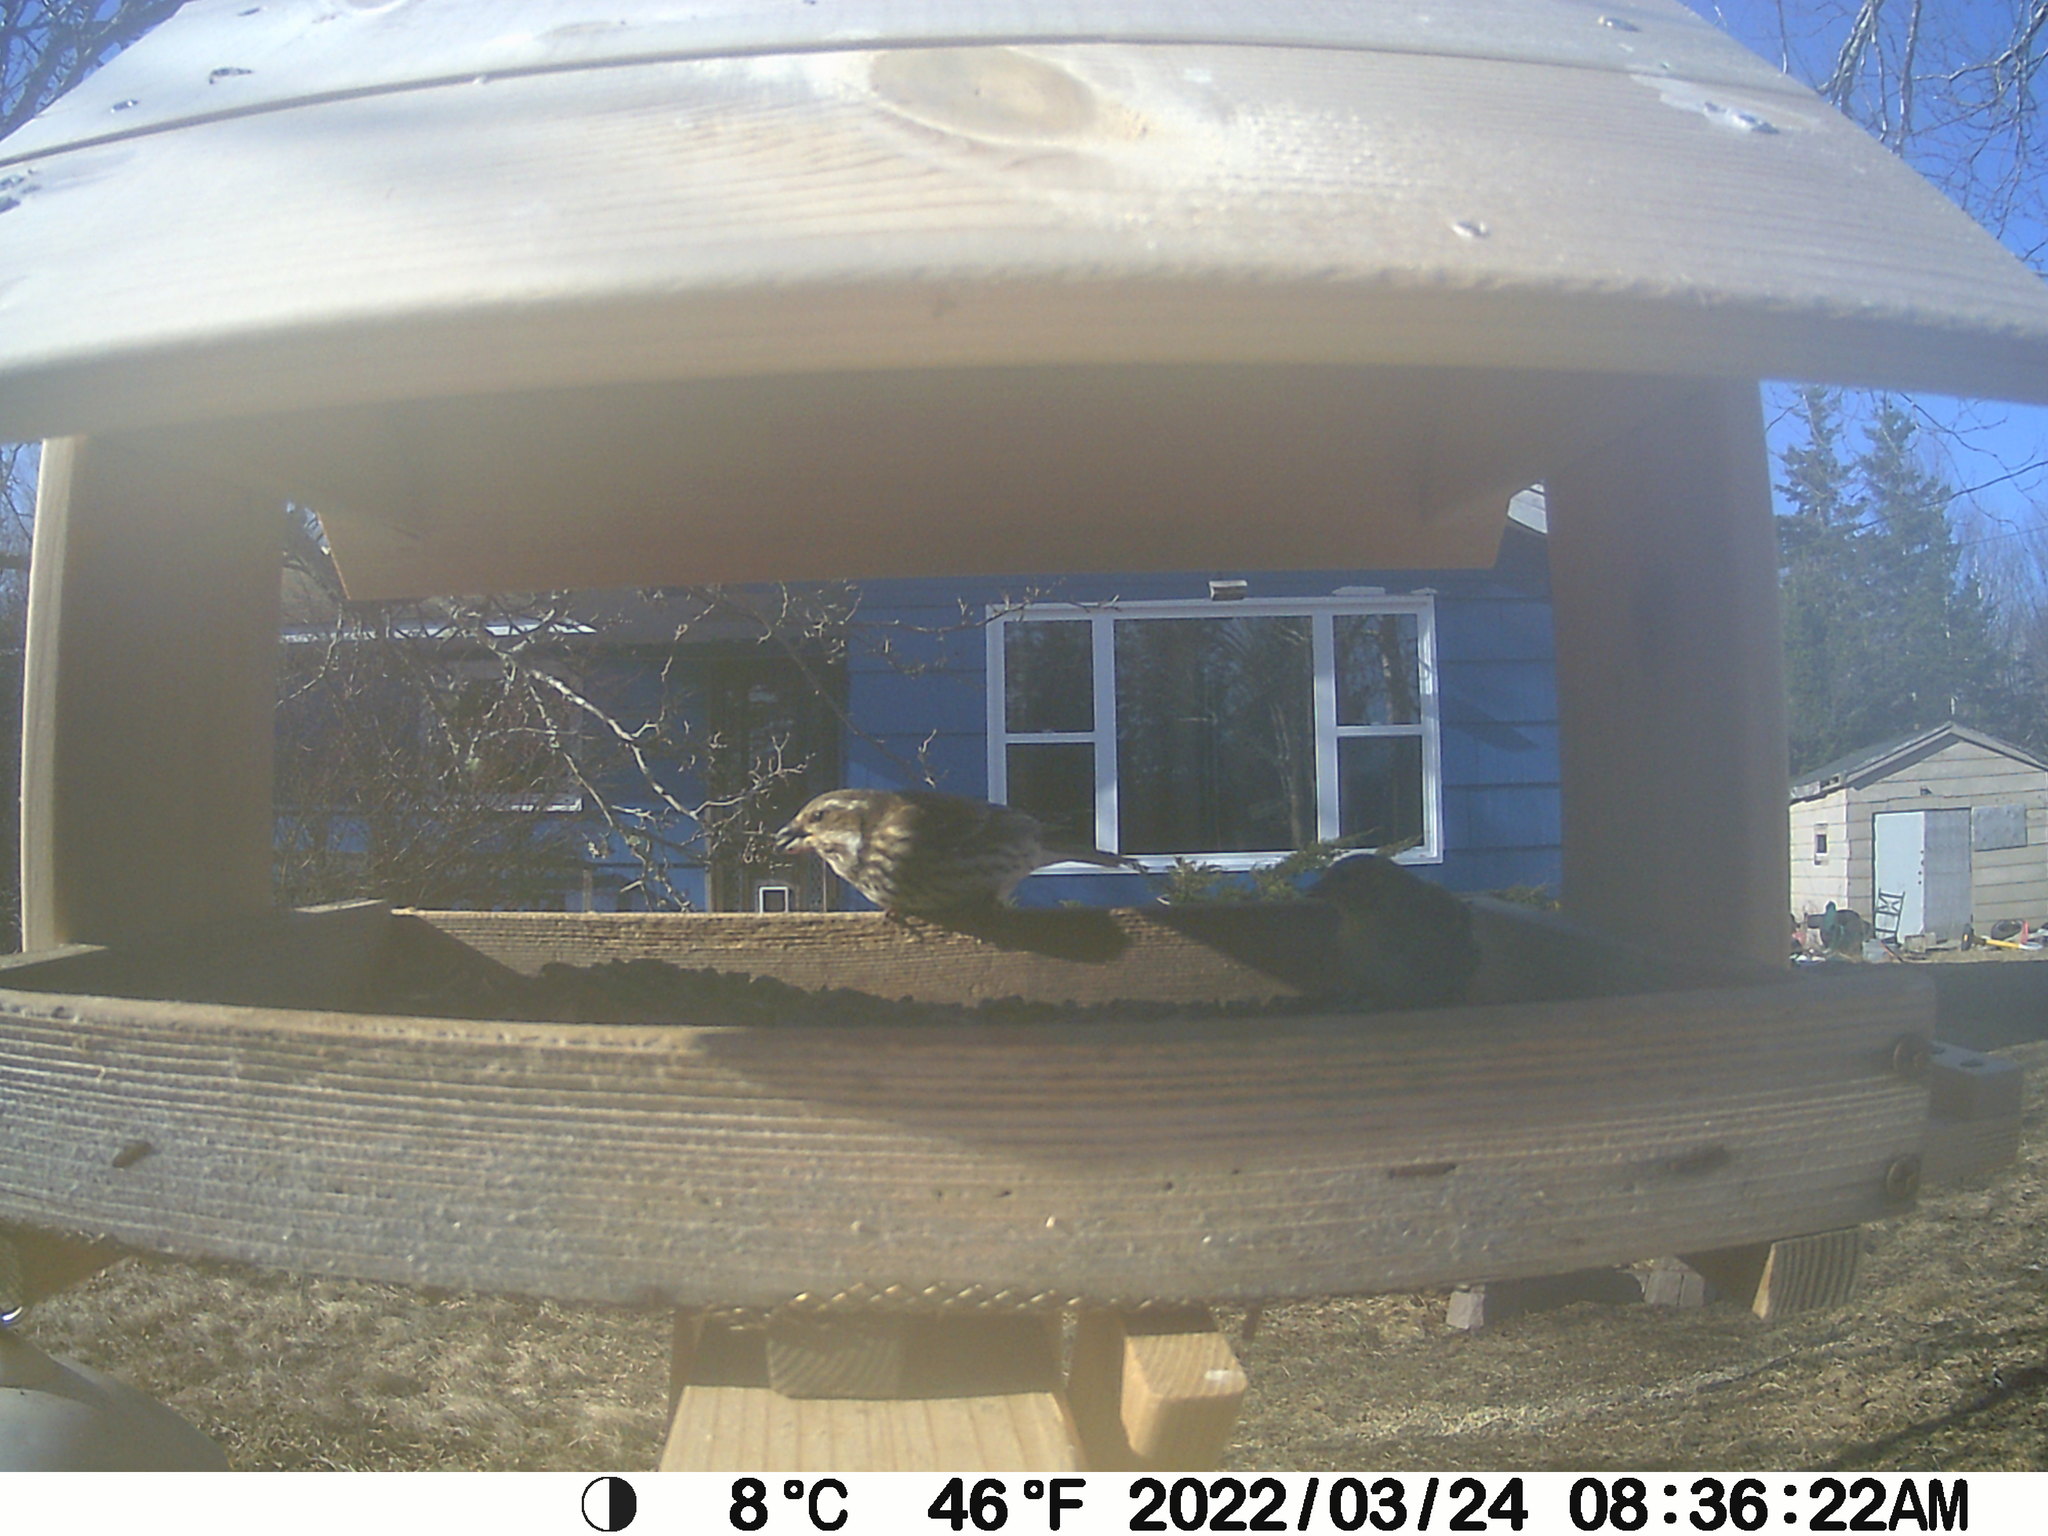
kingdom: Animalia
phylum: Chordata
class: Aves
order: Passeriformes
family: Fringillidae
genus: Haemorhous
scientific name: Haemorhous purpureus
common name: Purple finch
